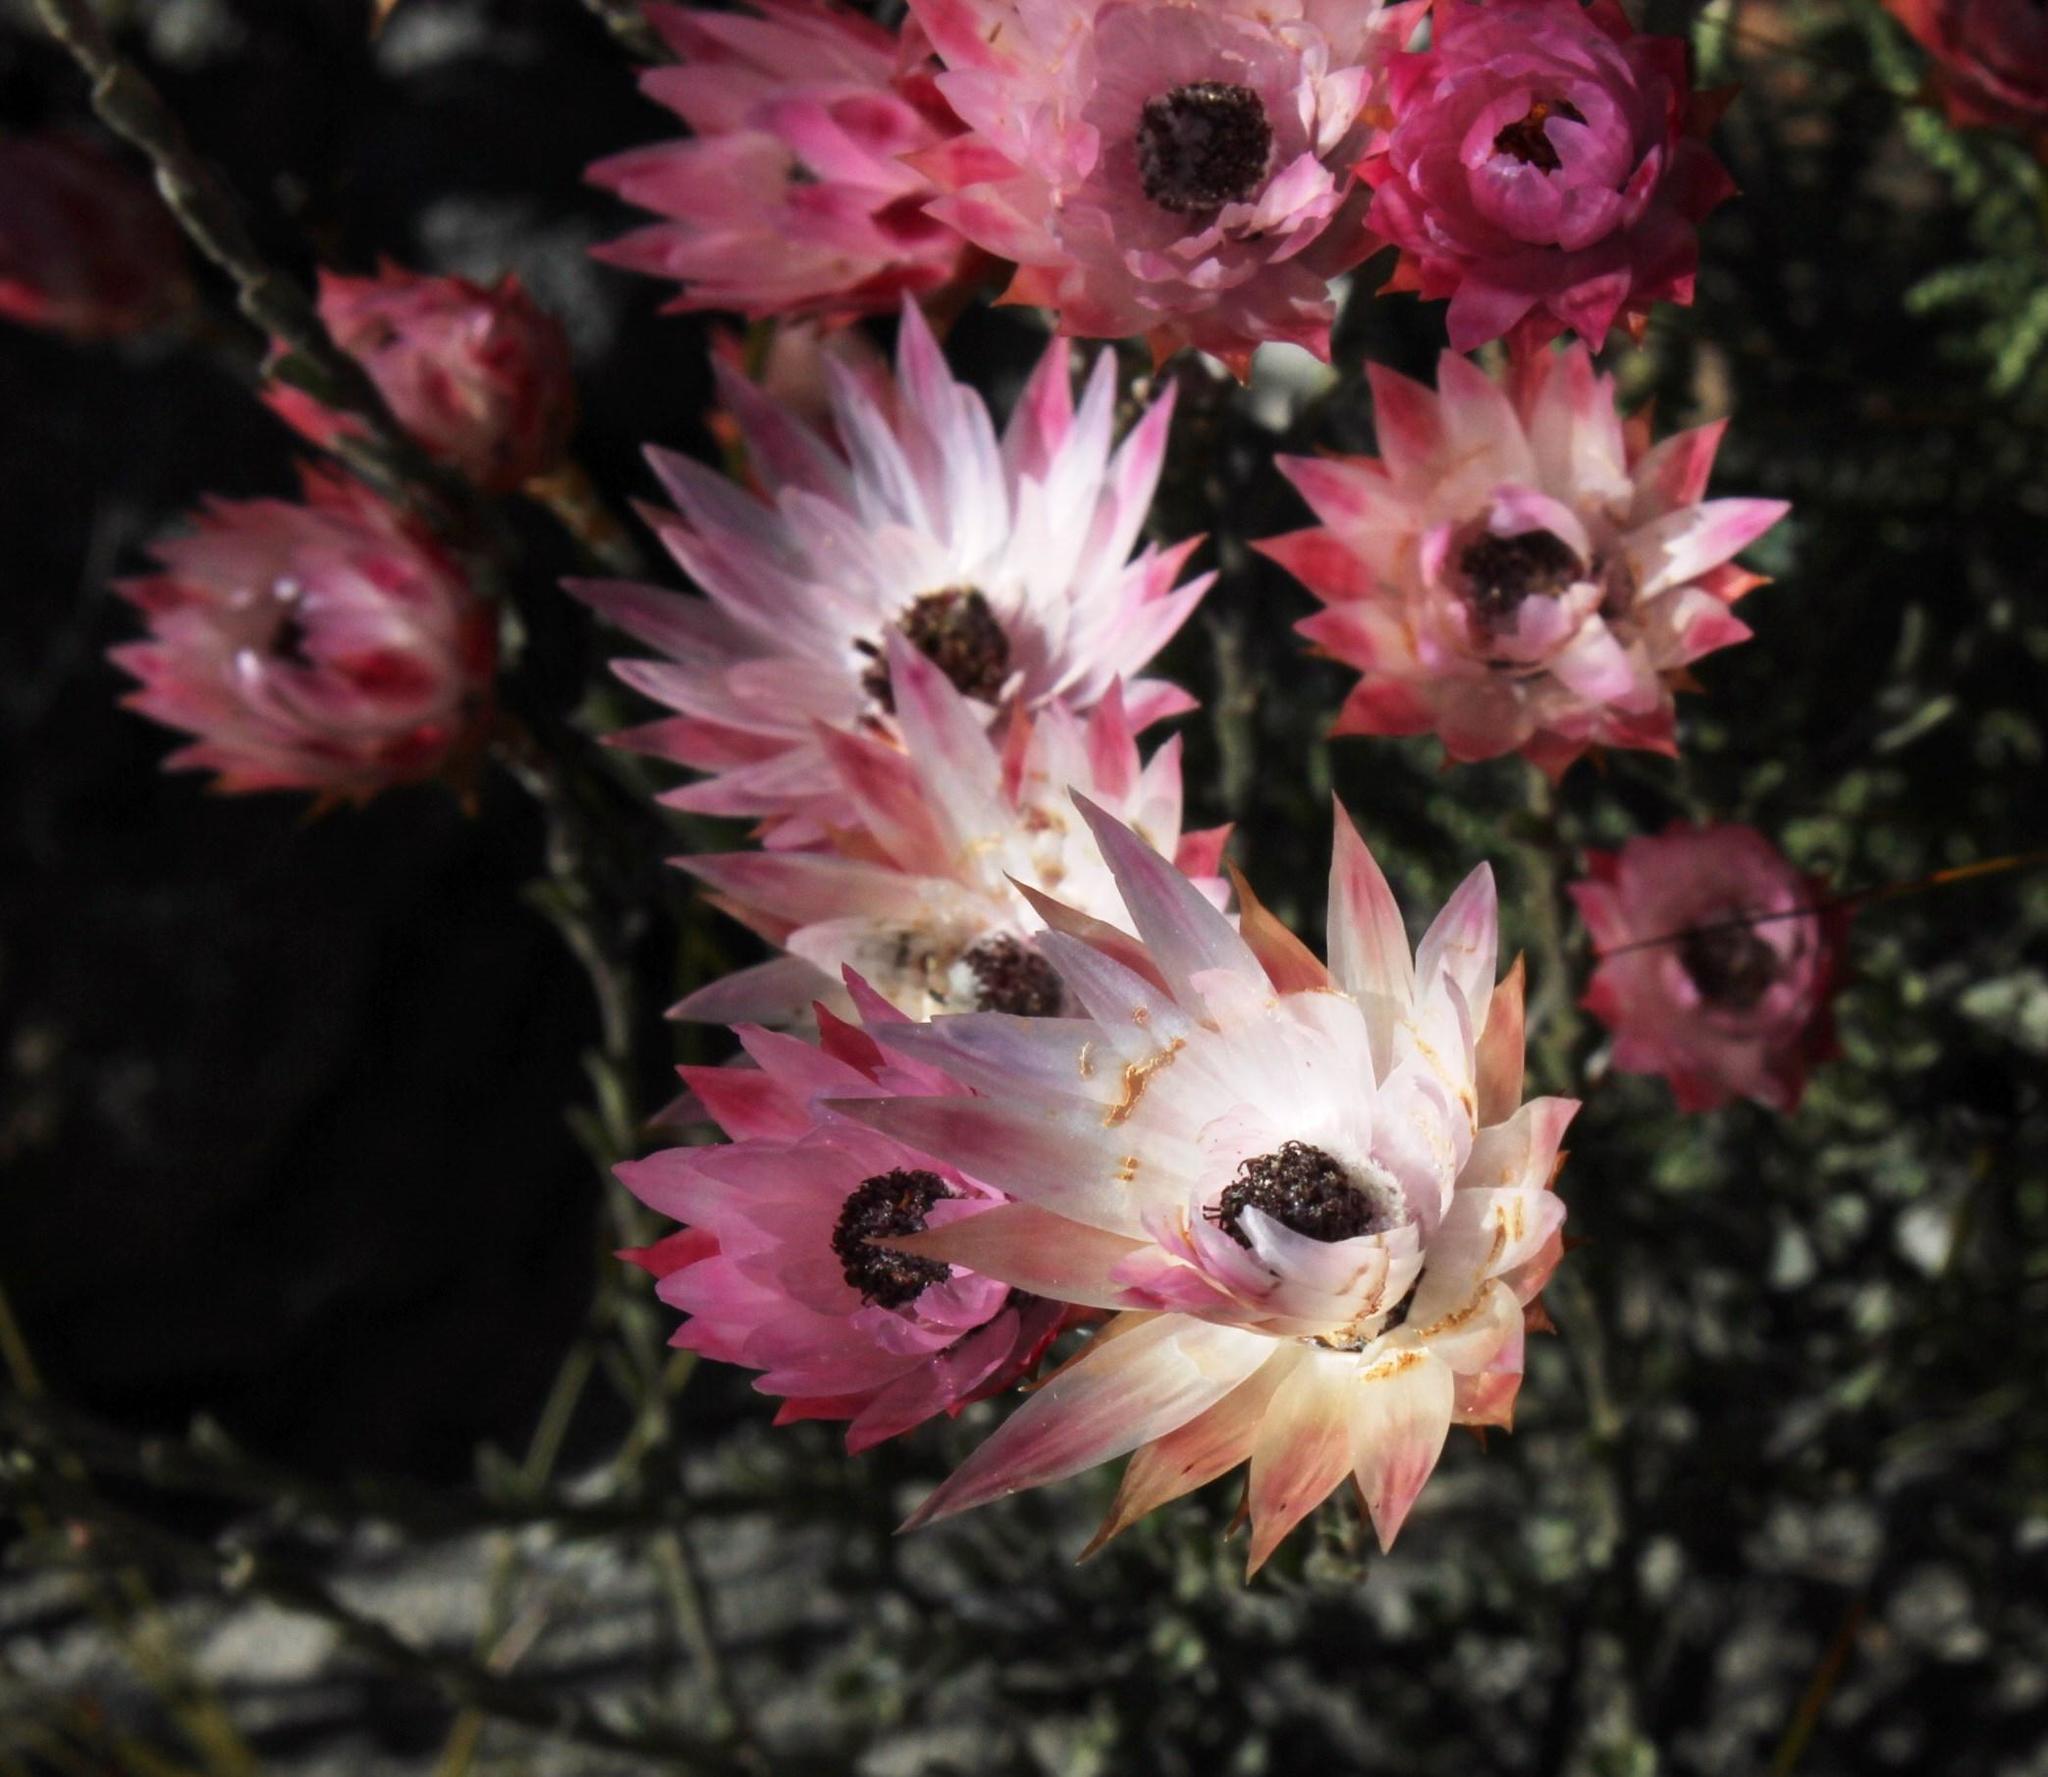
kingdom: Plantae
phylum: Tracheophyta
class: Magnoliopsida
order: Asterales
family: Asteraceae
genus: Syncarpha
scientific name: Syncarpha canescens
